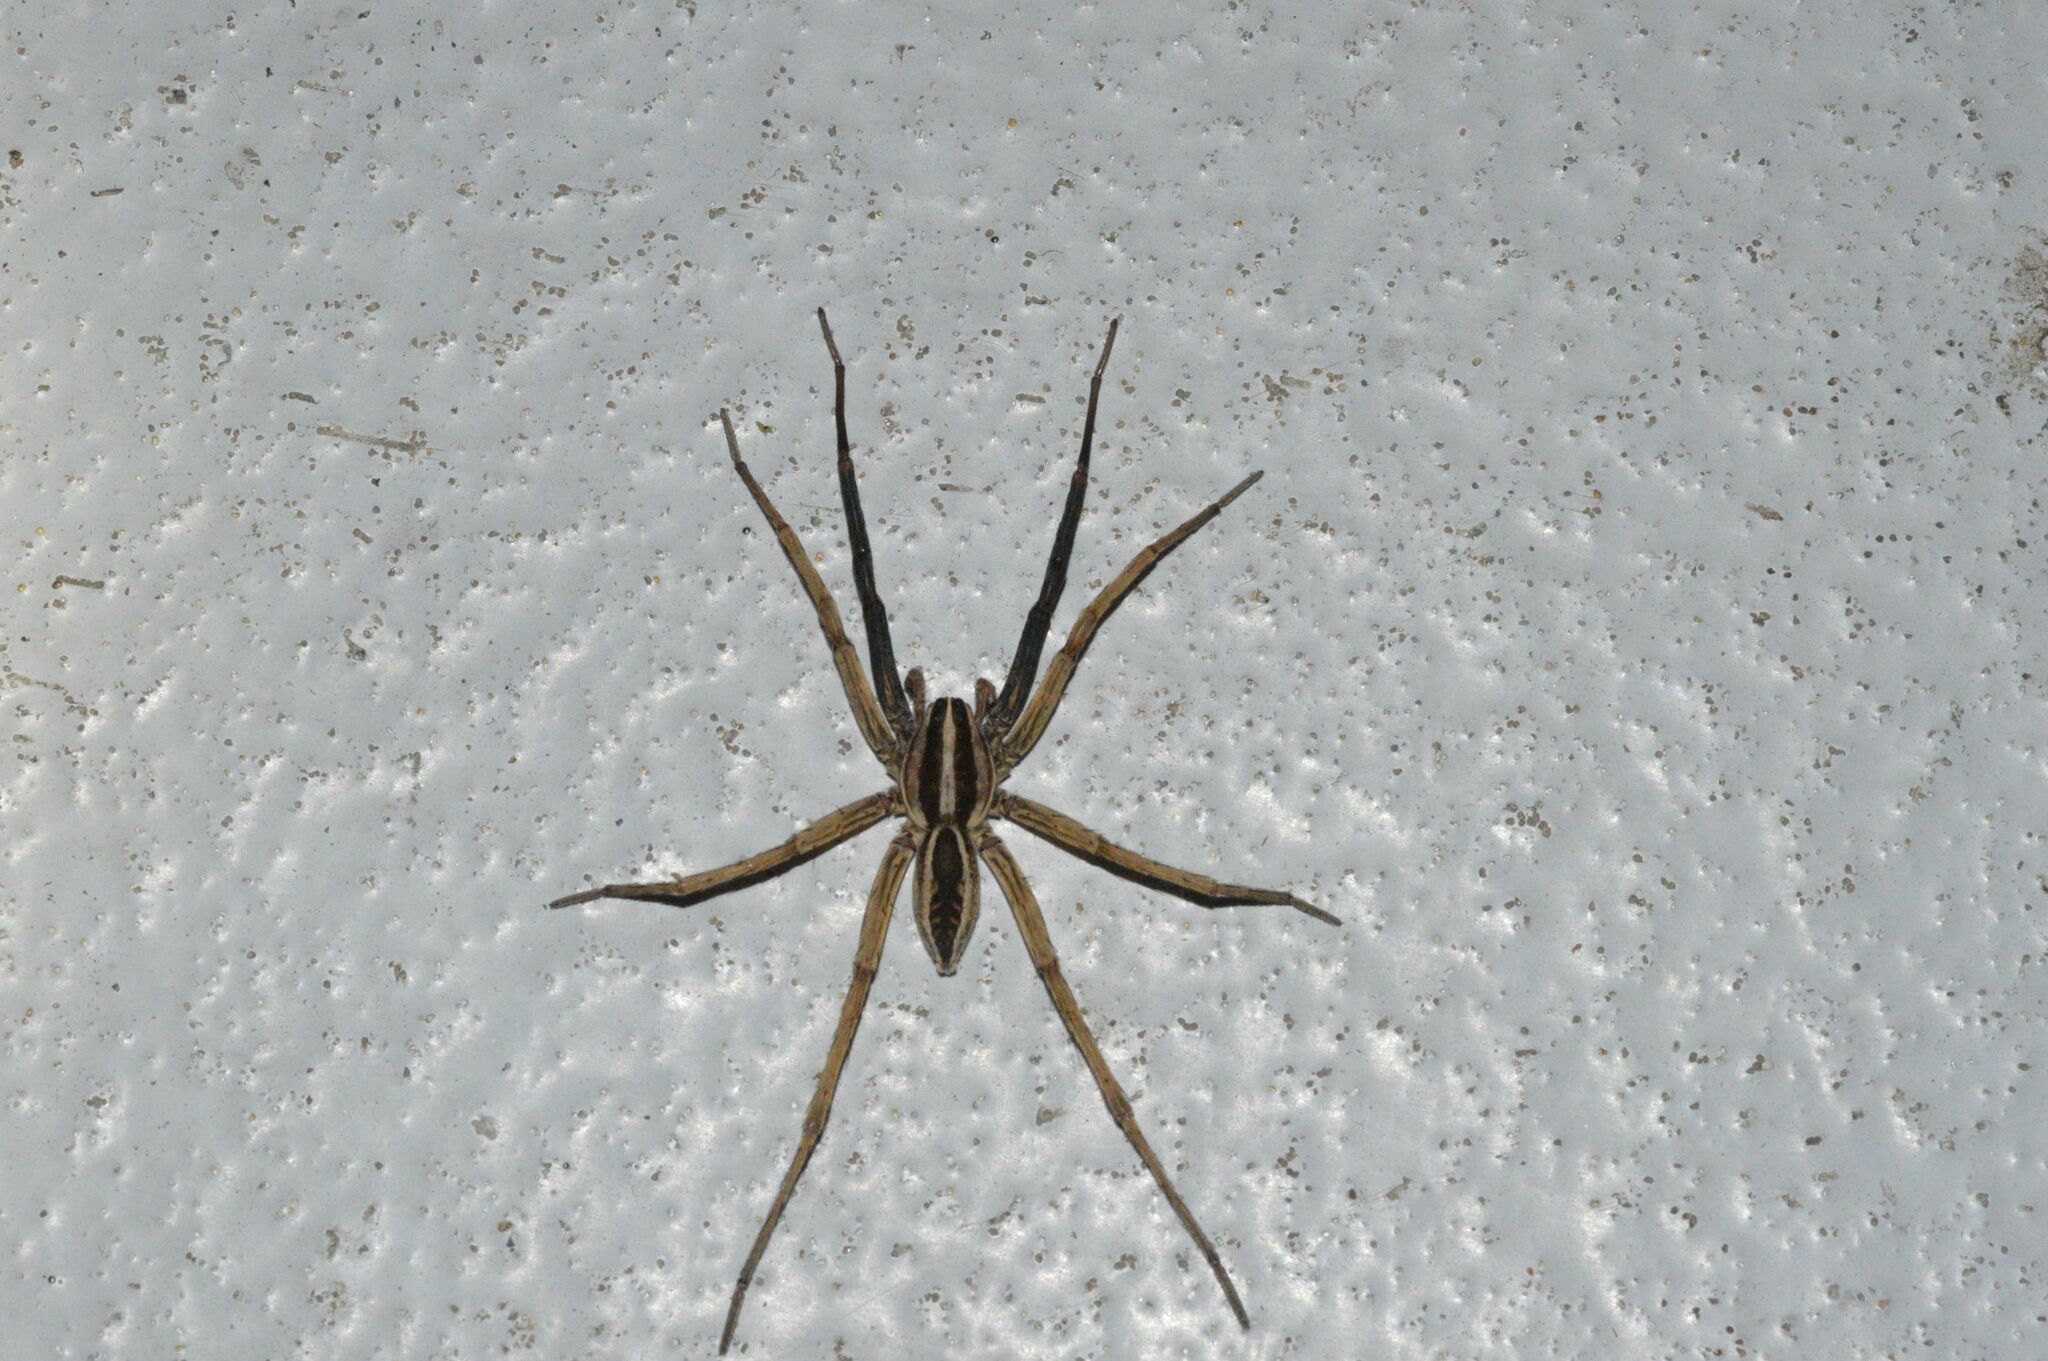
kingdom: Animalia
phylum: Arthropoda
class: Arachnida
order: Araneae
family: Lycosidae
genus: Rabidosa
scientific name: Rabidosa rabida
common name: Rabid wolf spider
